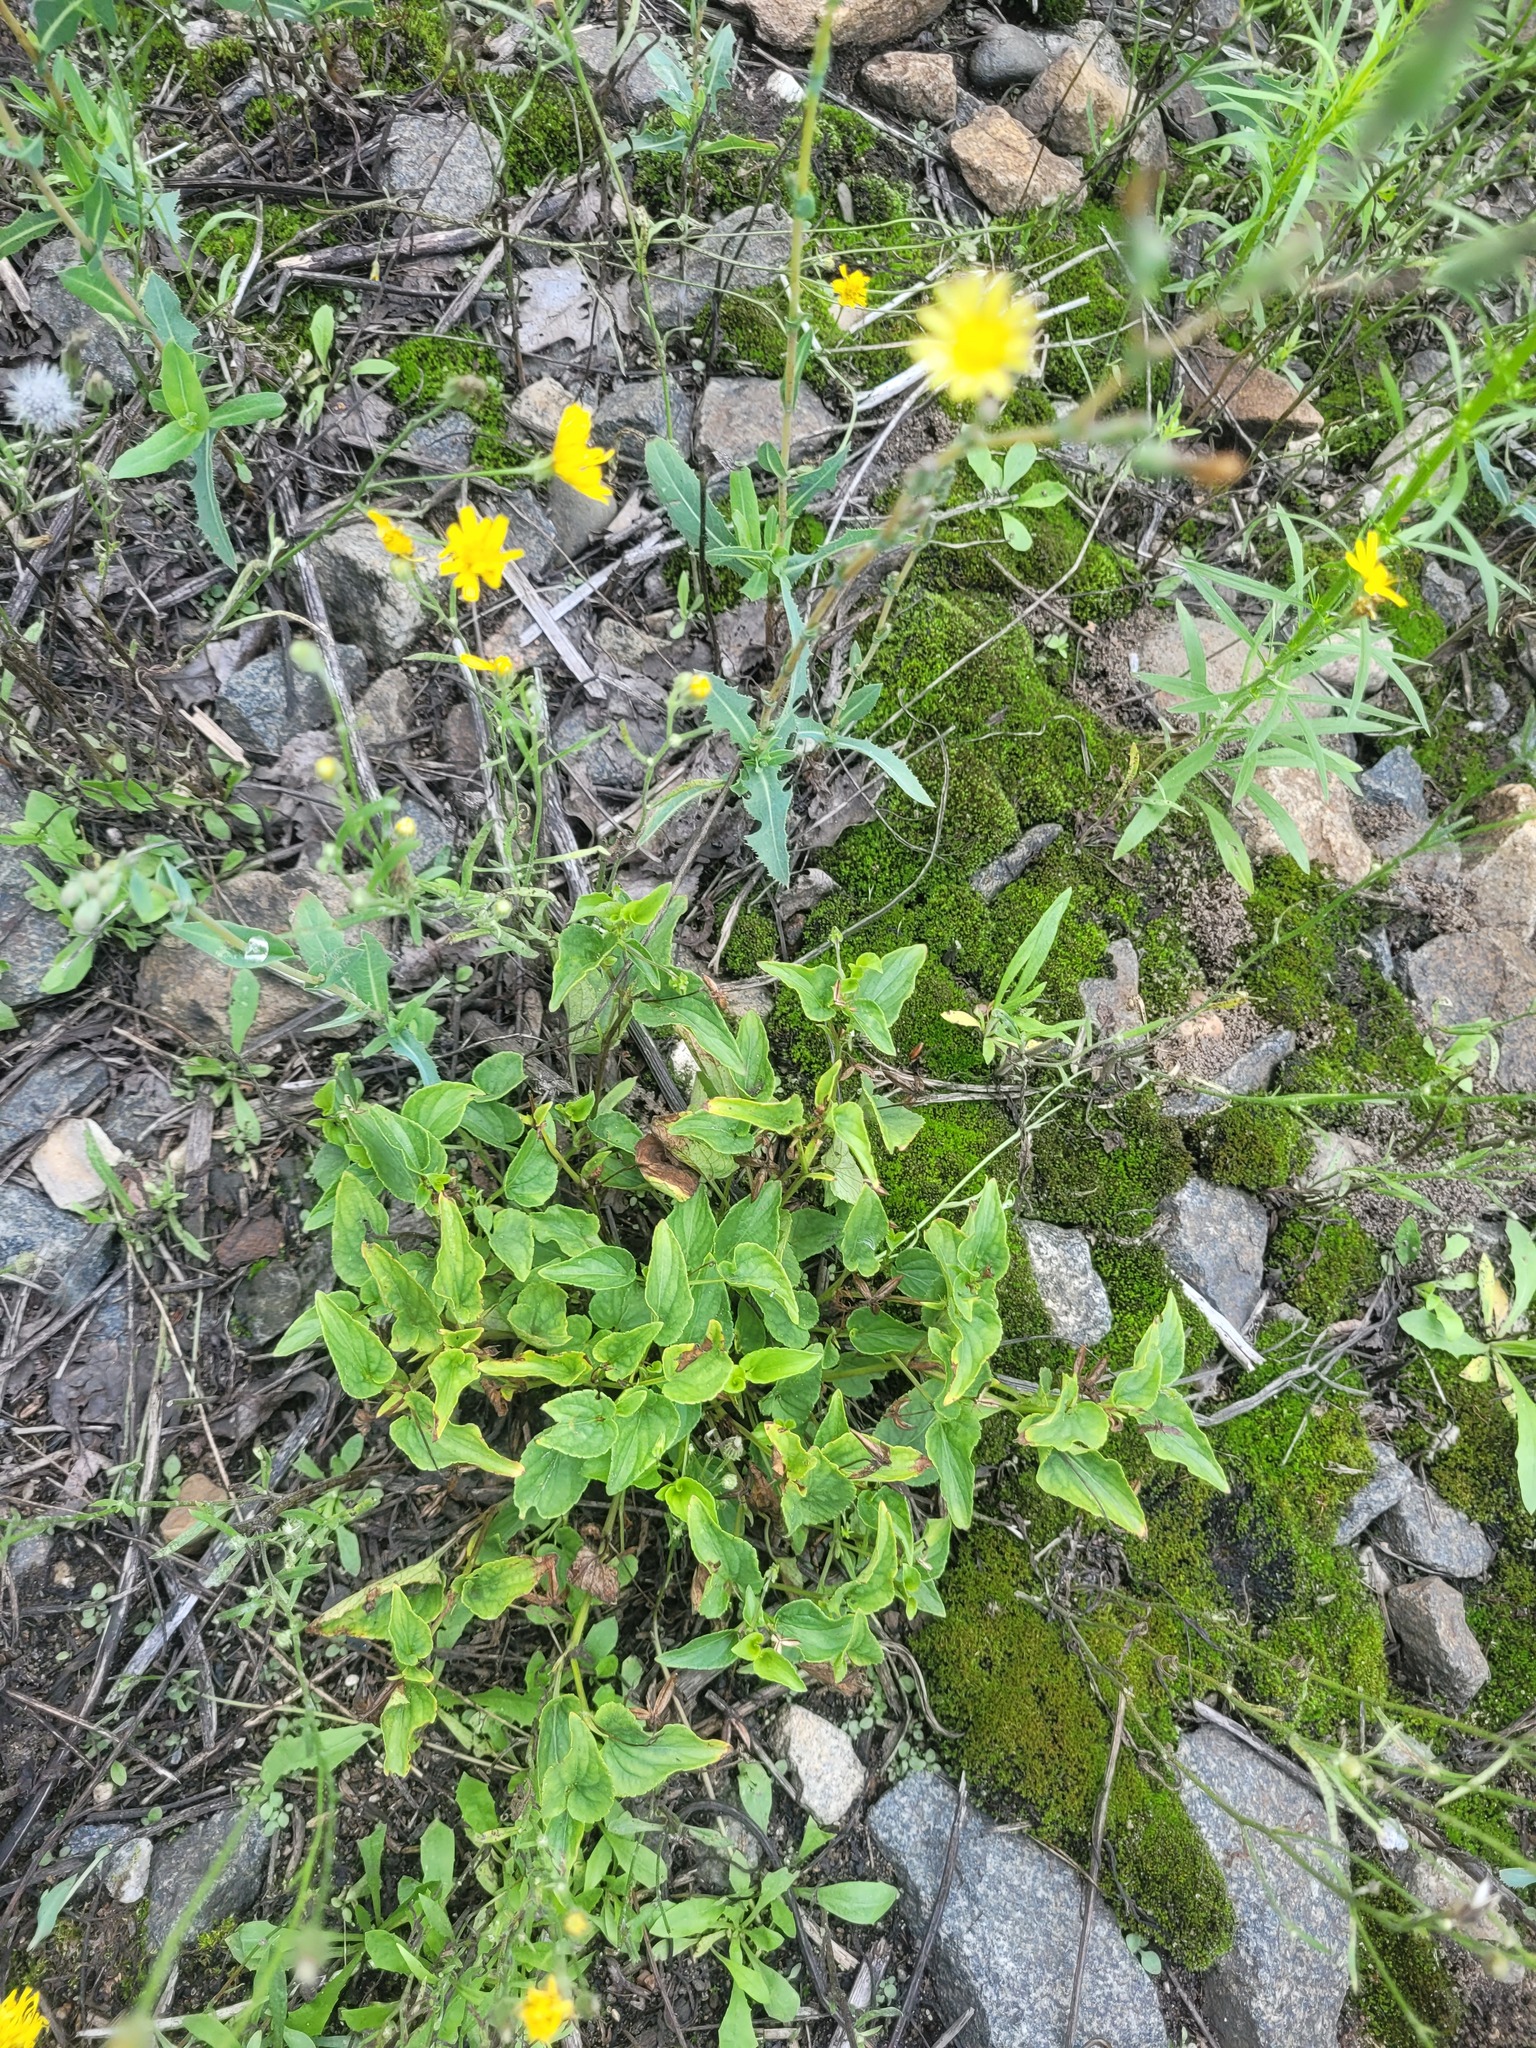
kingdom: Plantae
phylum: Tracheophyta
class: Magnoliopsida
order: Malpighiales
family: Violaceae
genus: Viola
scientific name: Viola canina
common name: Heath dog-violet
